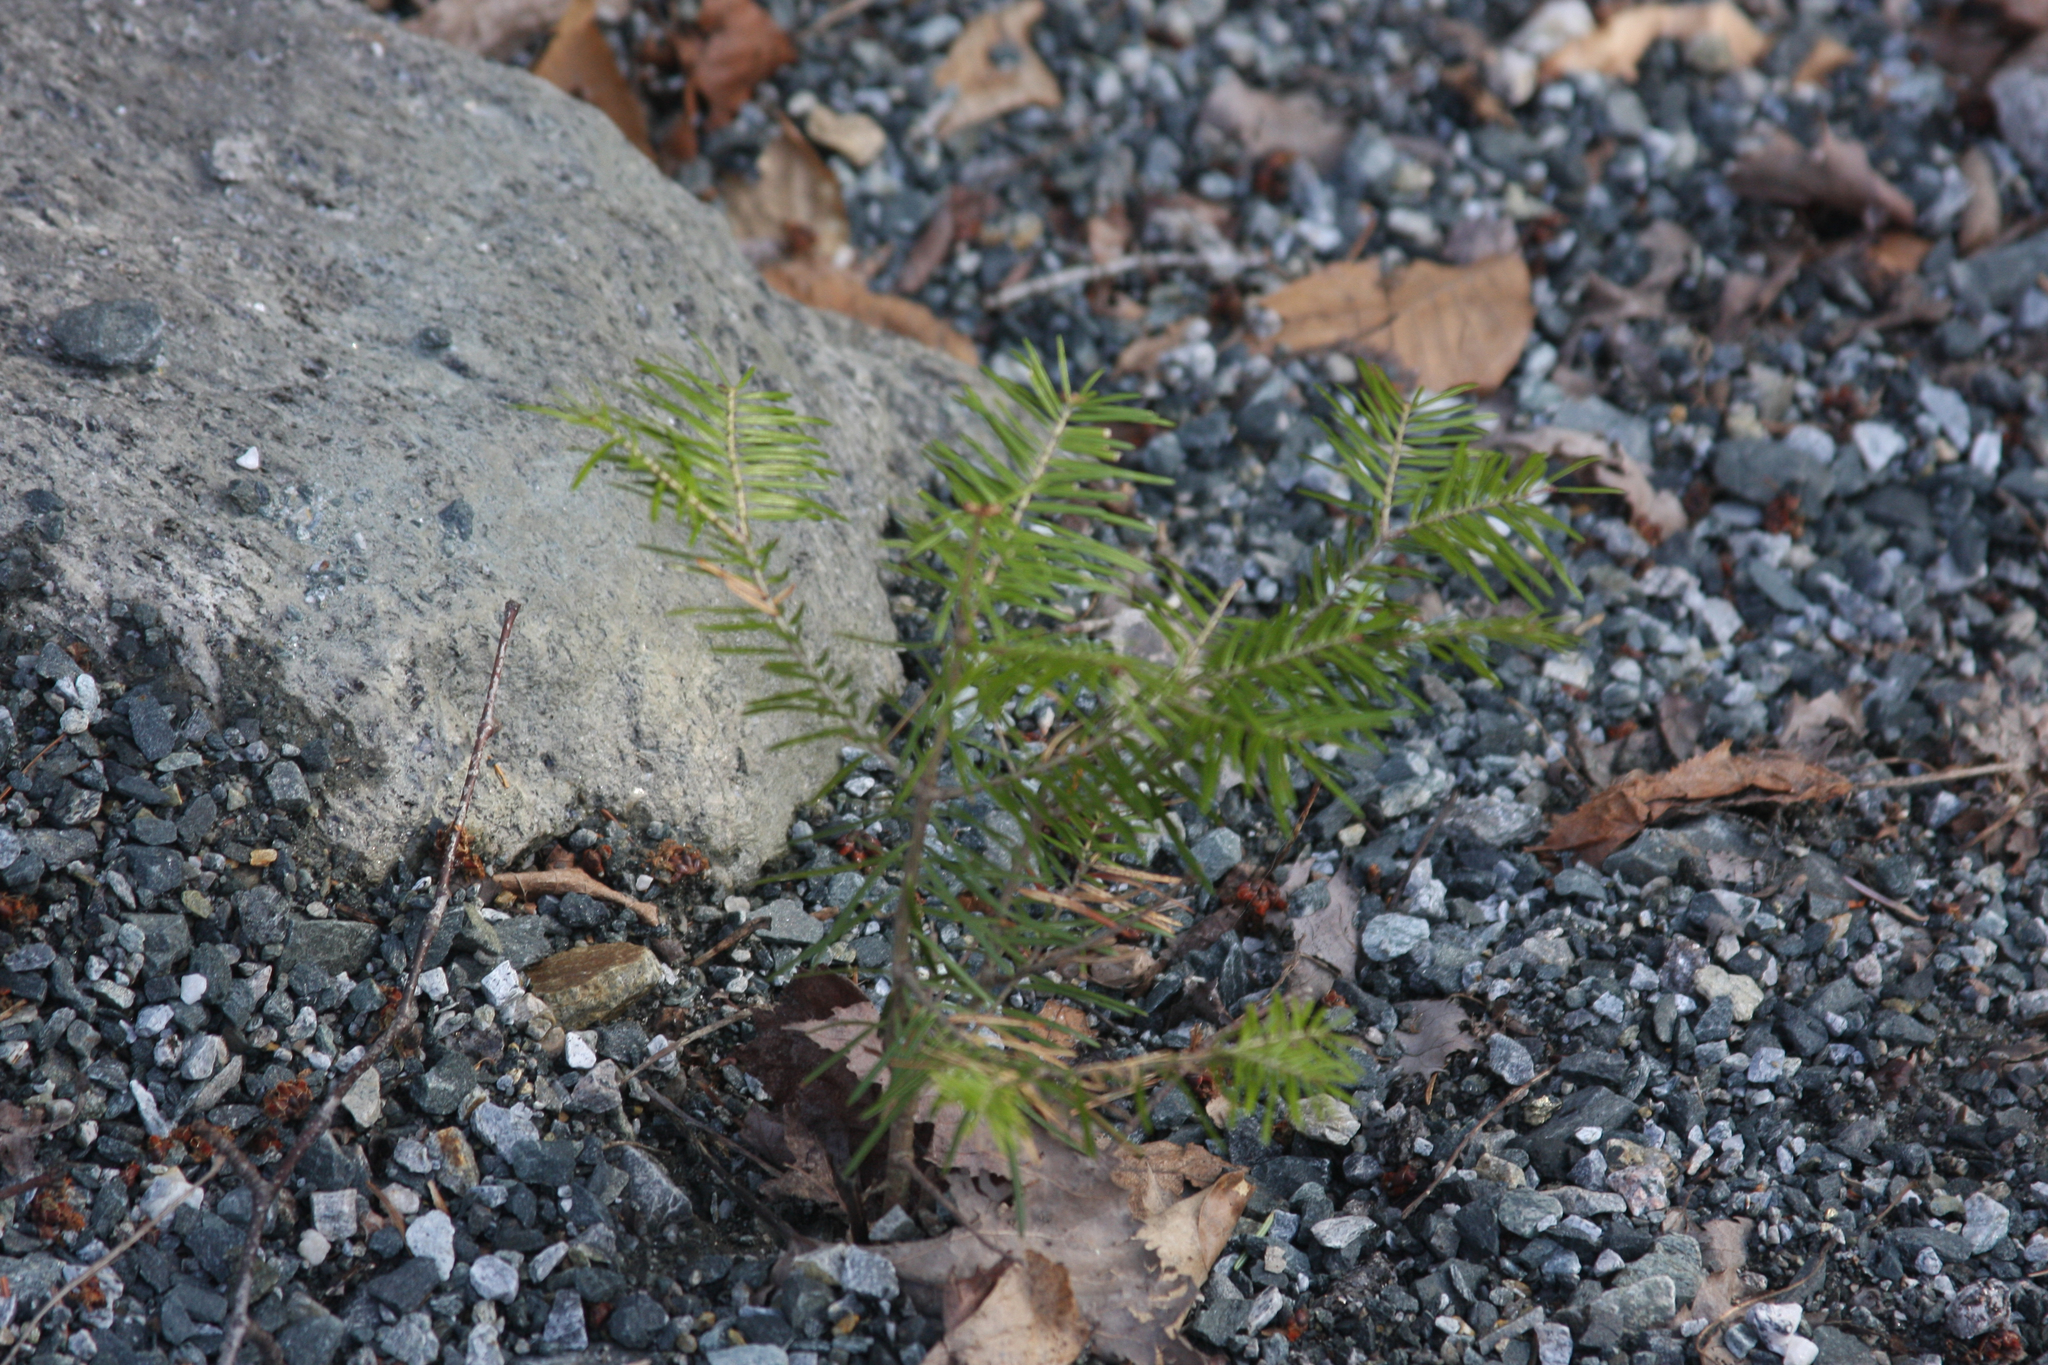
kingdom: Plantae
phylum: Tracheophyta
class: Pinopsida
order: Pinales
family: Pinaceae
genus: Abies
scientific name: Abies balsamea
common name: Balsam fir
